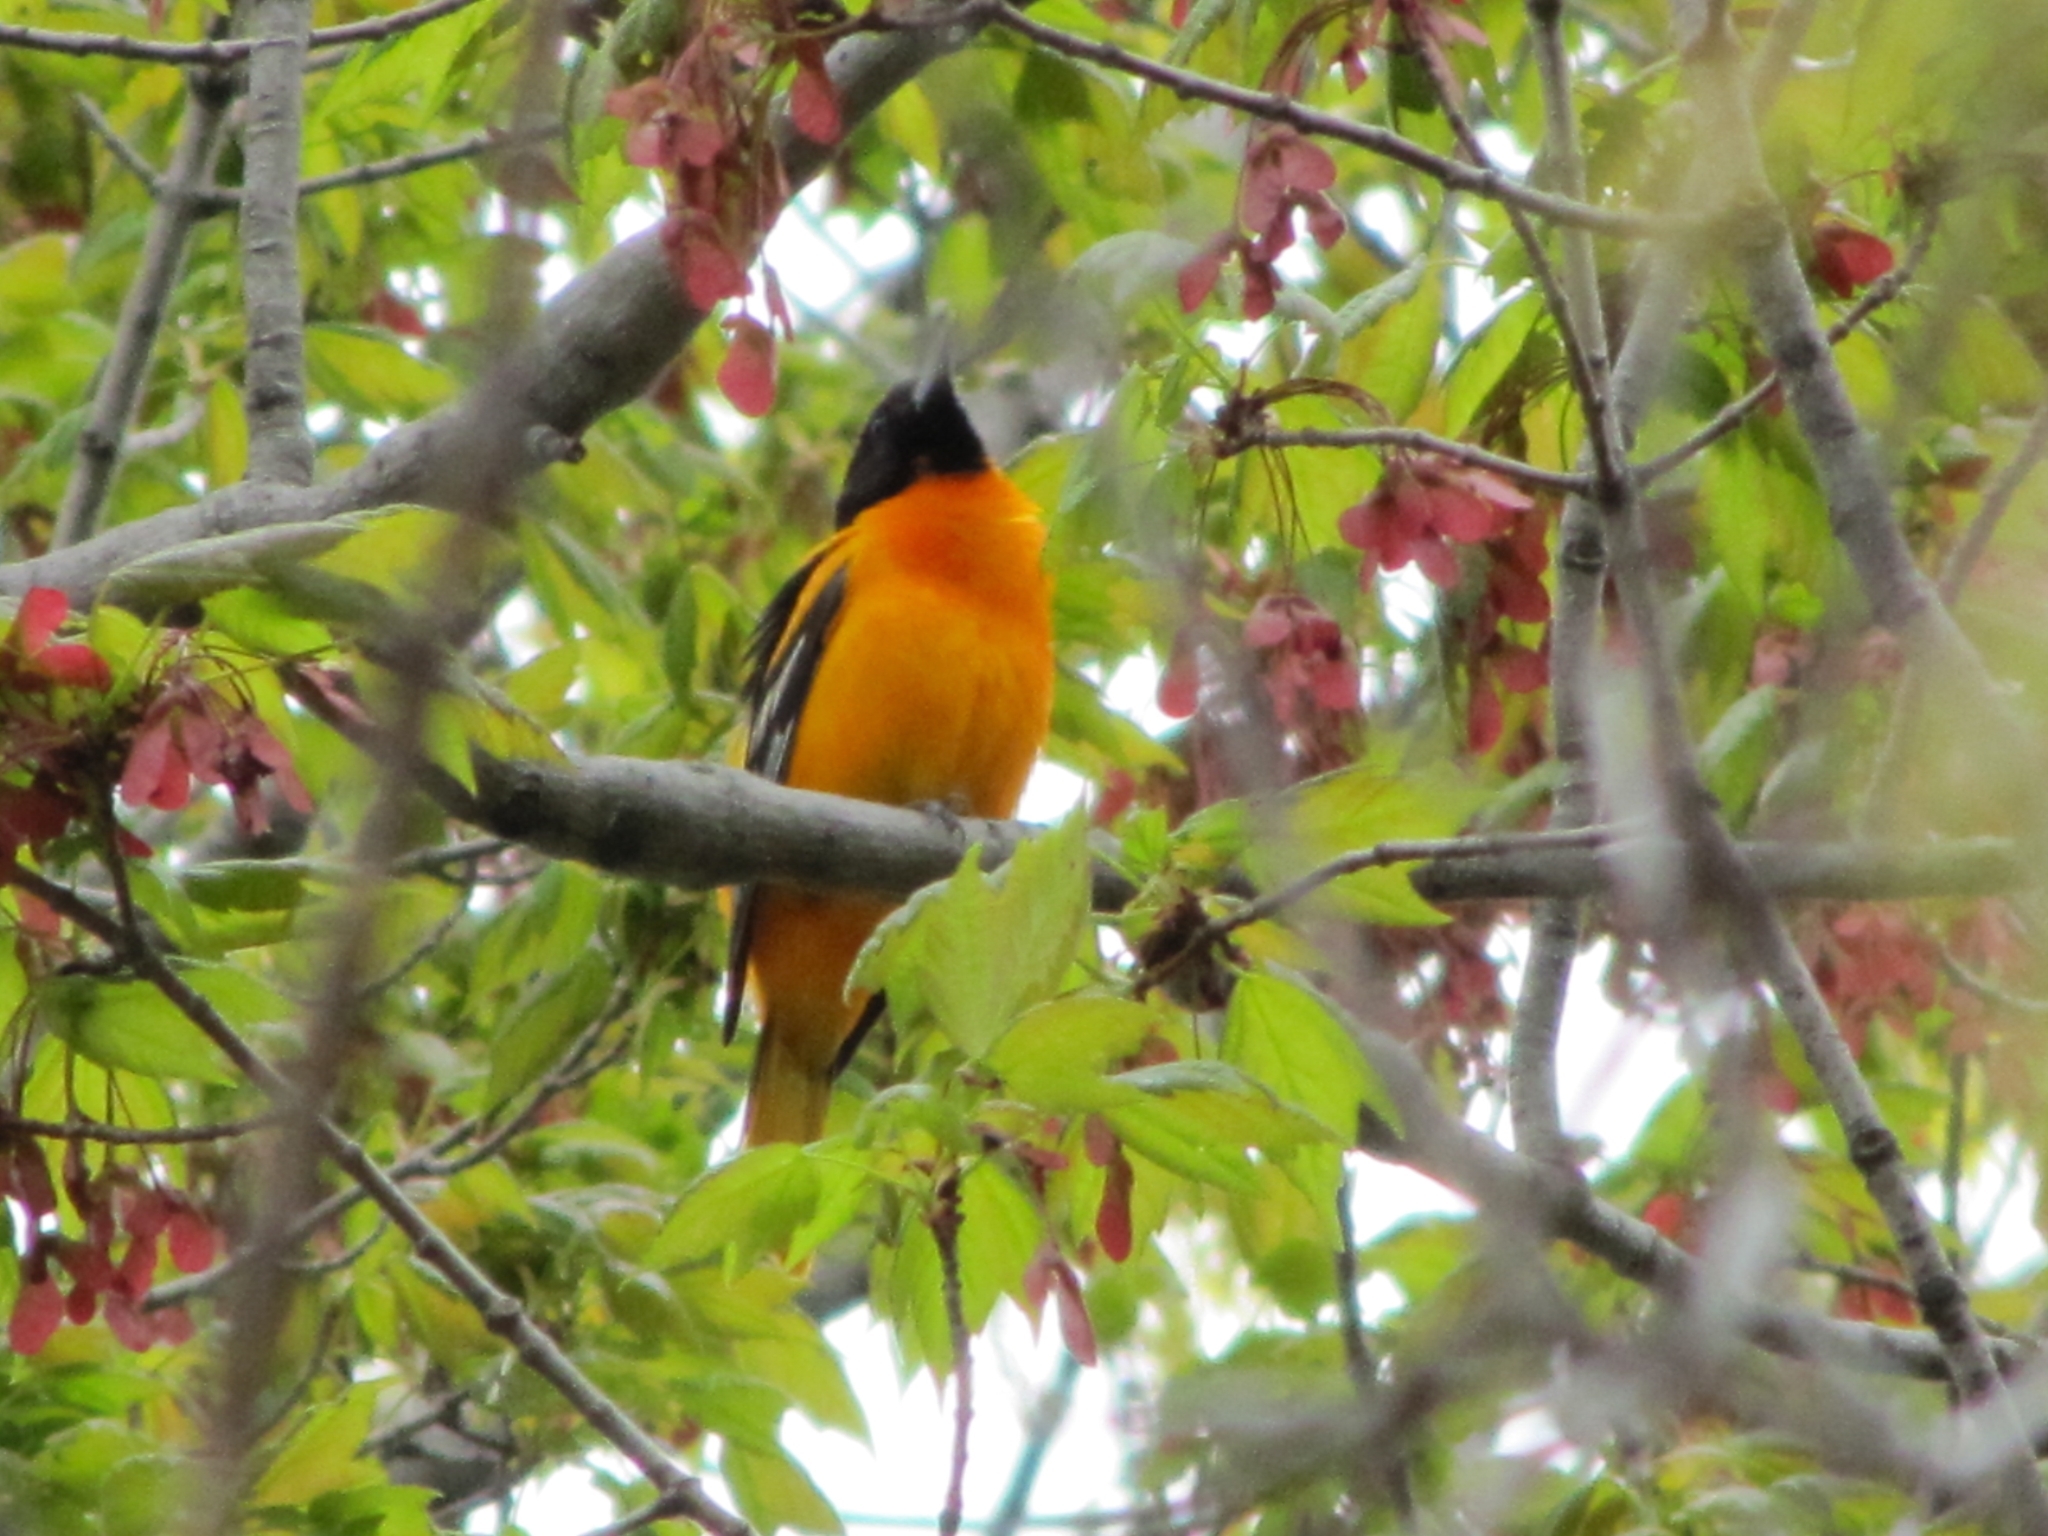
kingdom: Animalia
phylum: Chordata
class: Aves
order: Passeriformes
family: Icteridae
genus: Icterus
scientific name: Icterus galbula
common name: Baltimore oriole
